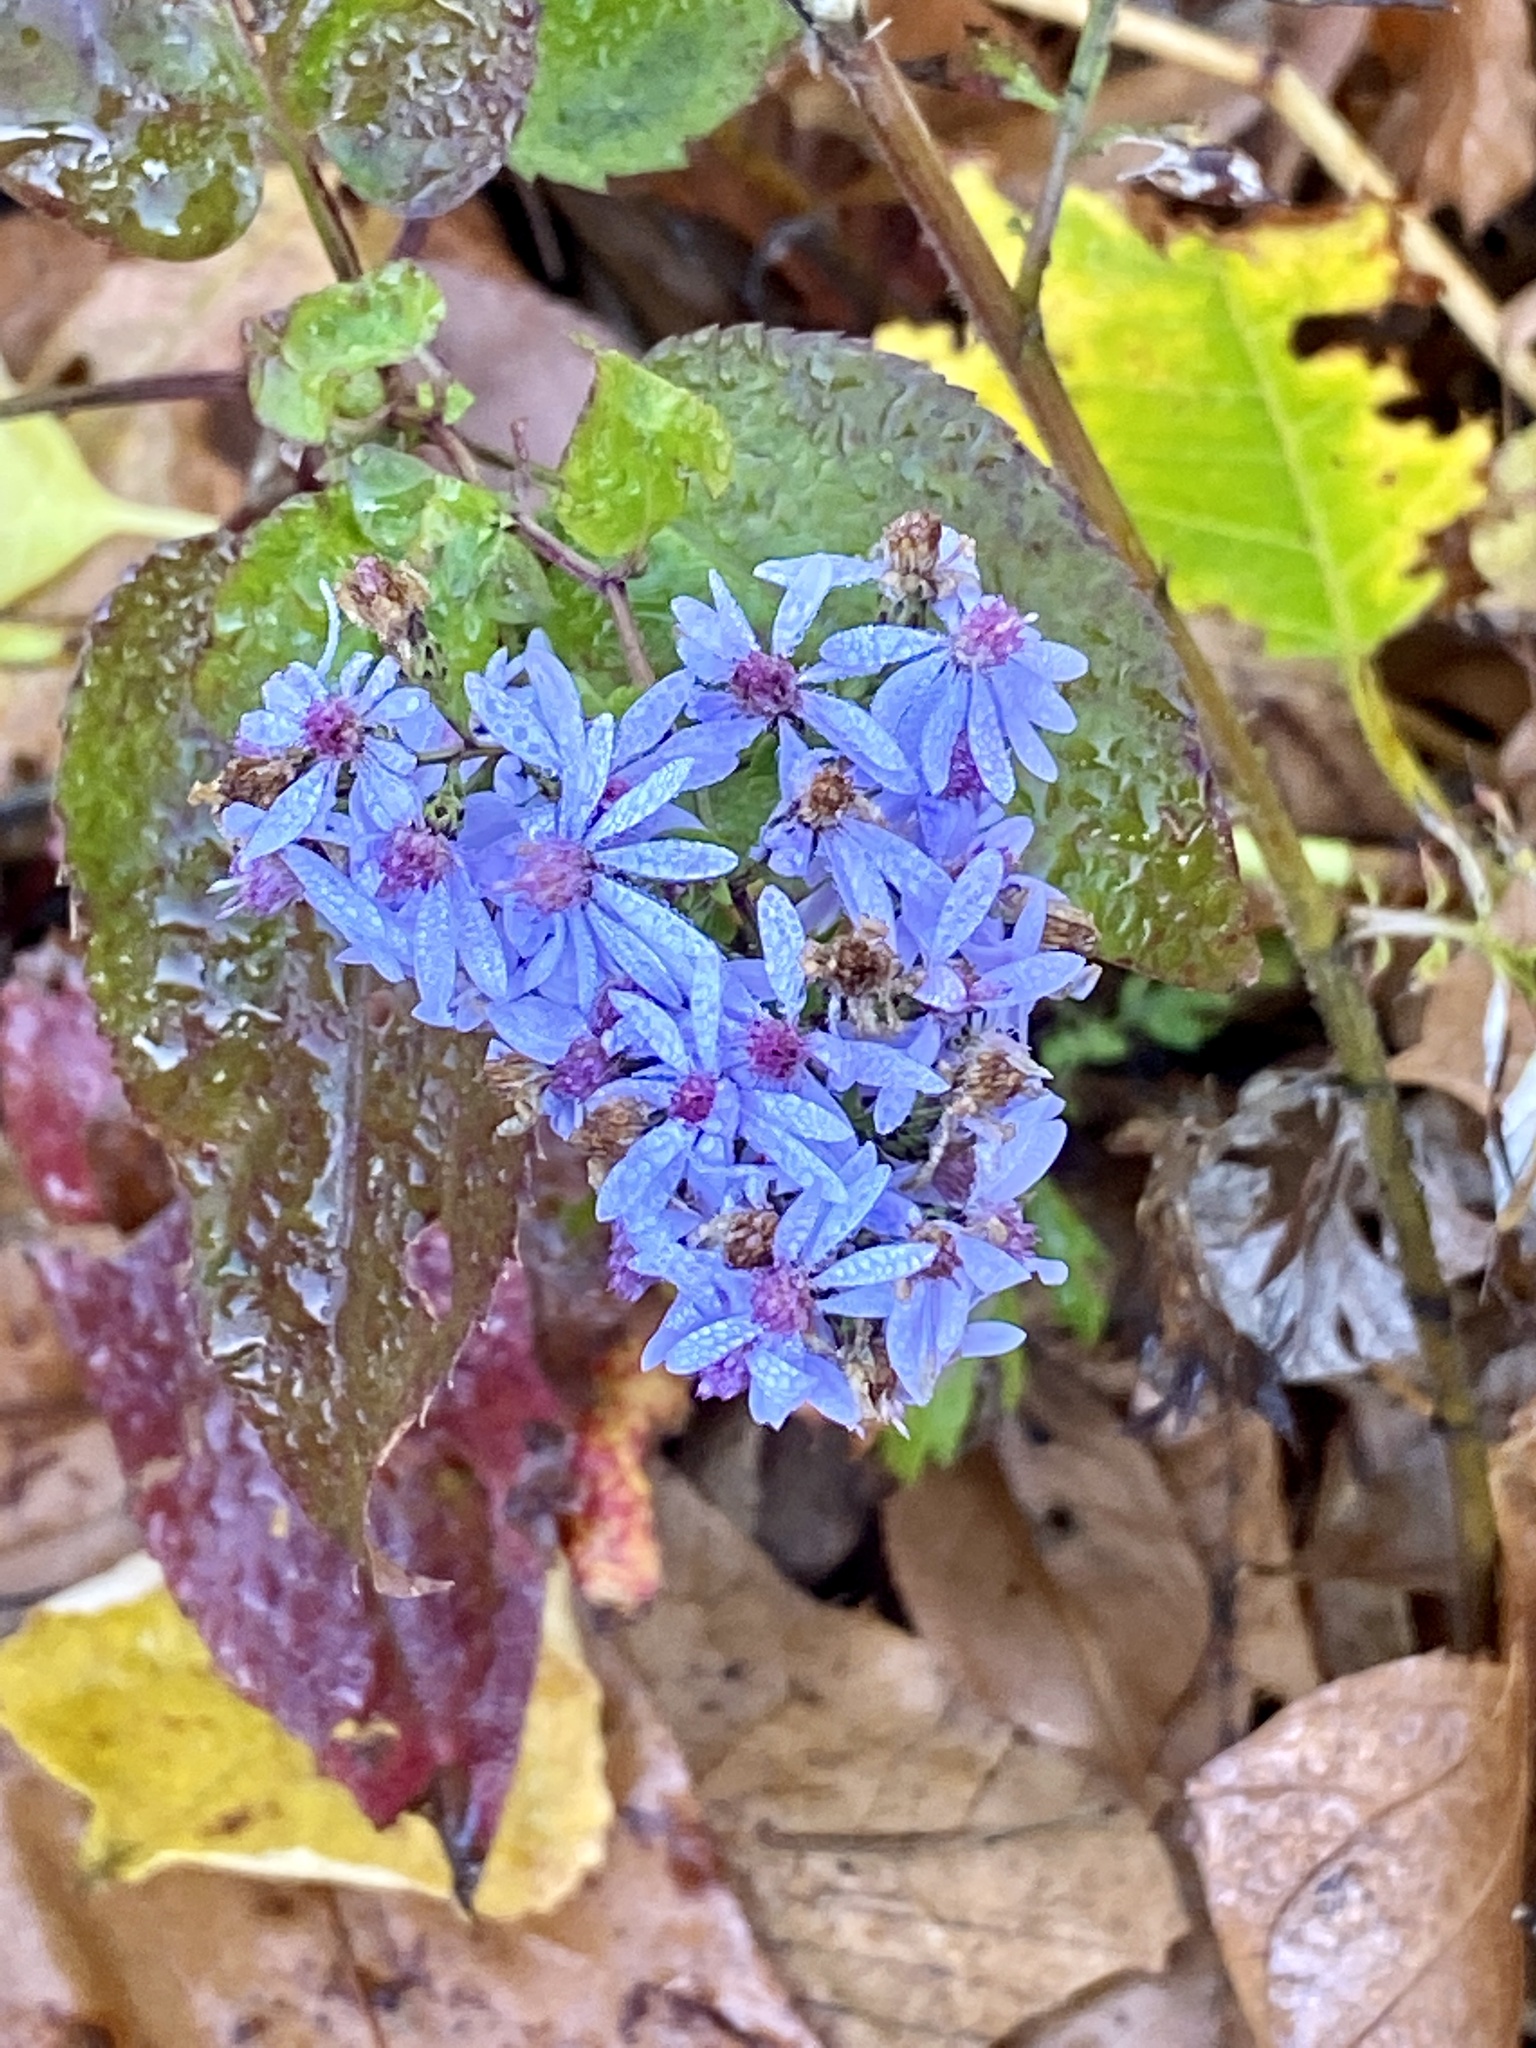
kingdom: Plantae
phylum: Tracheophyta
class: Magnoliopsida
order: Asterales
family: Asteraceae
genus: Symphyotrichum
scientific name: Symphyotrichum cordifolium
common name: Beeweed
